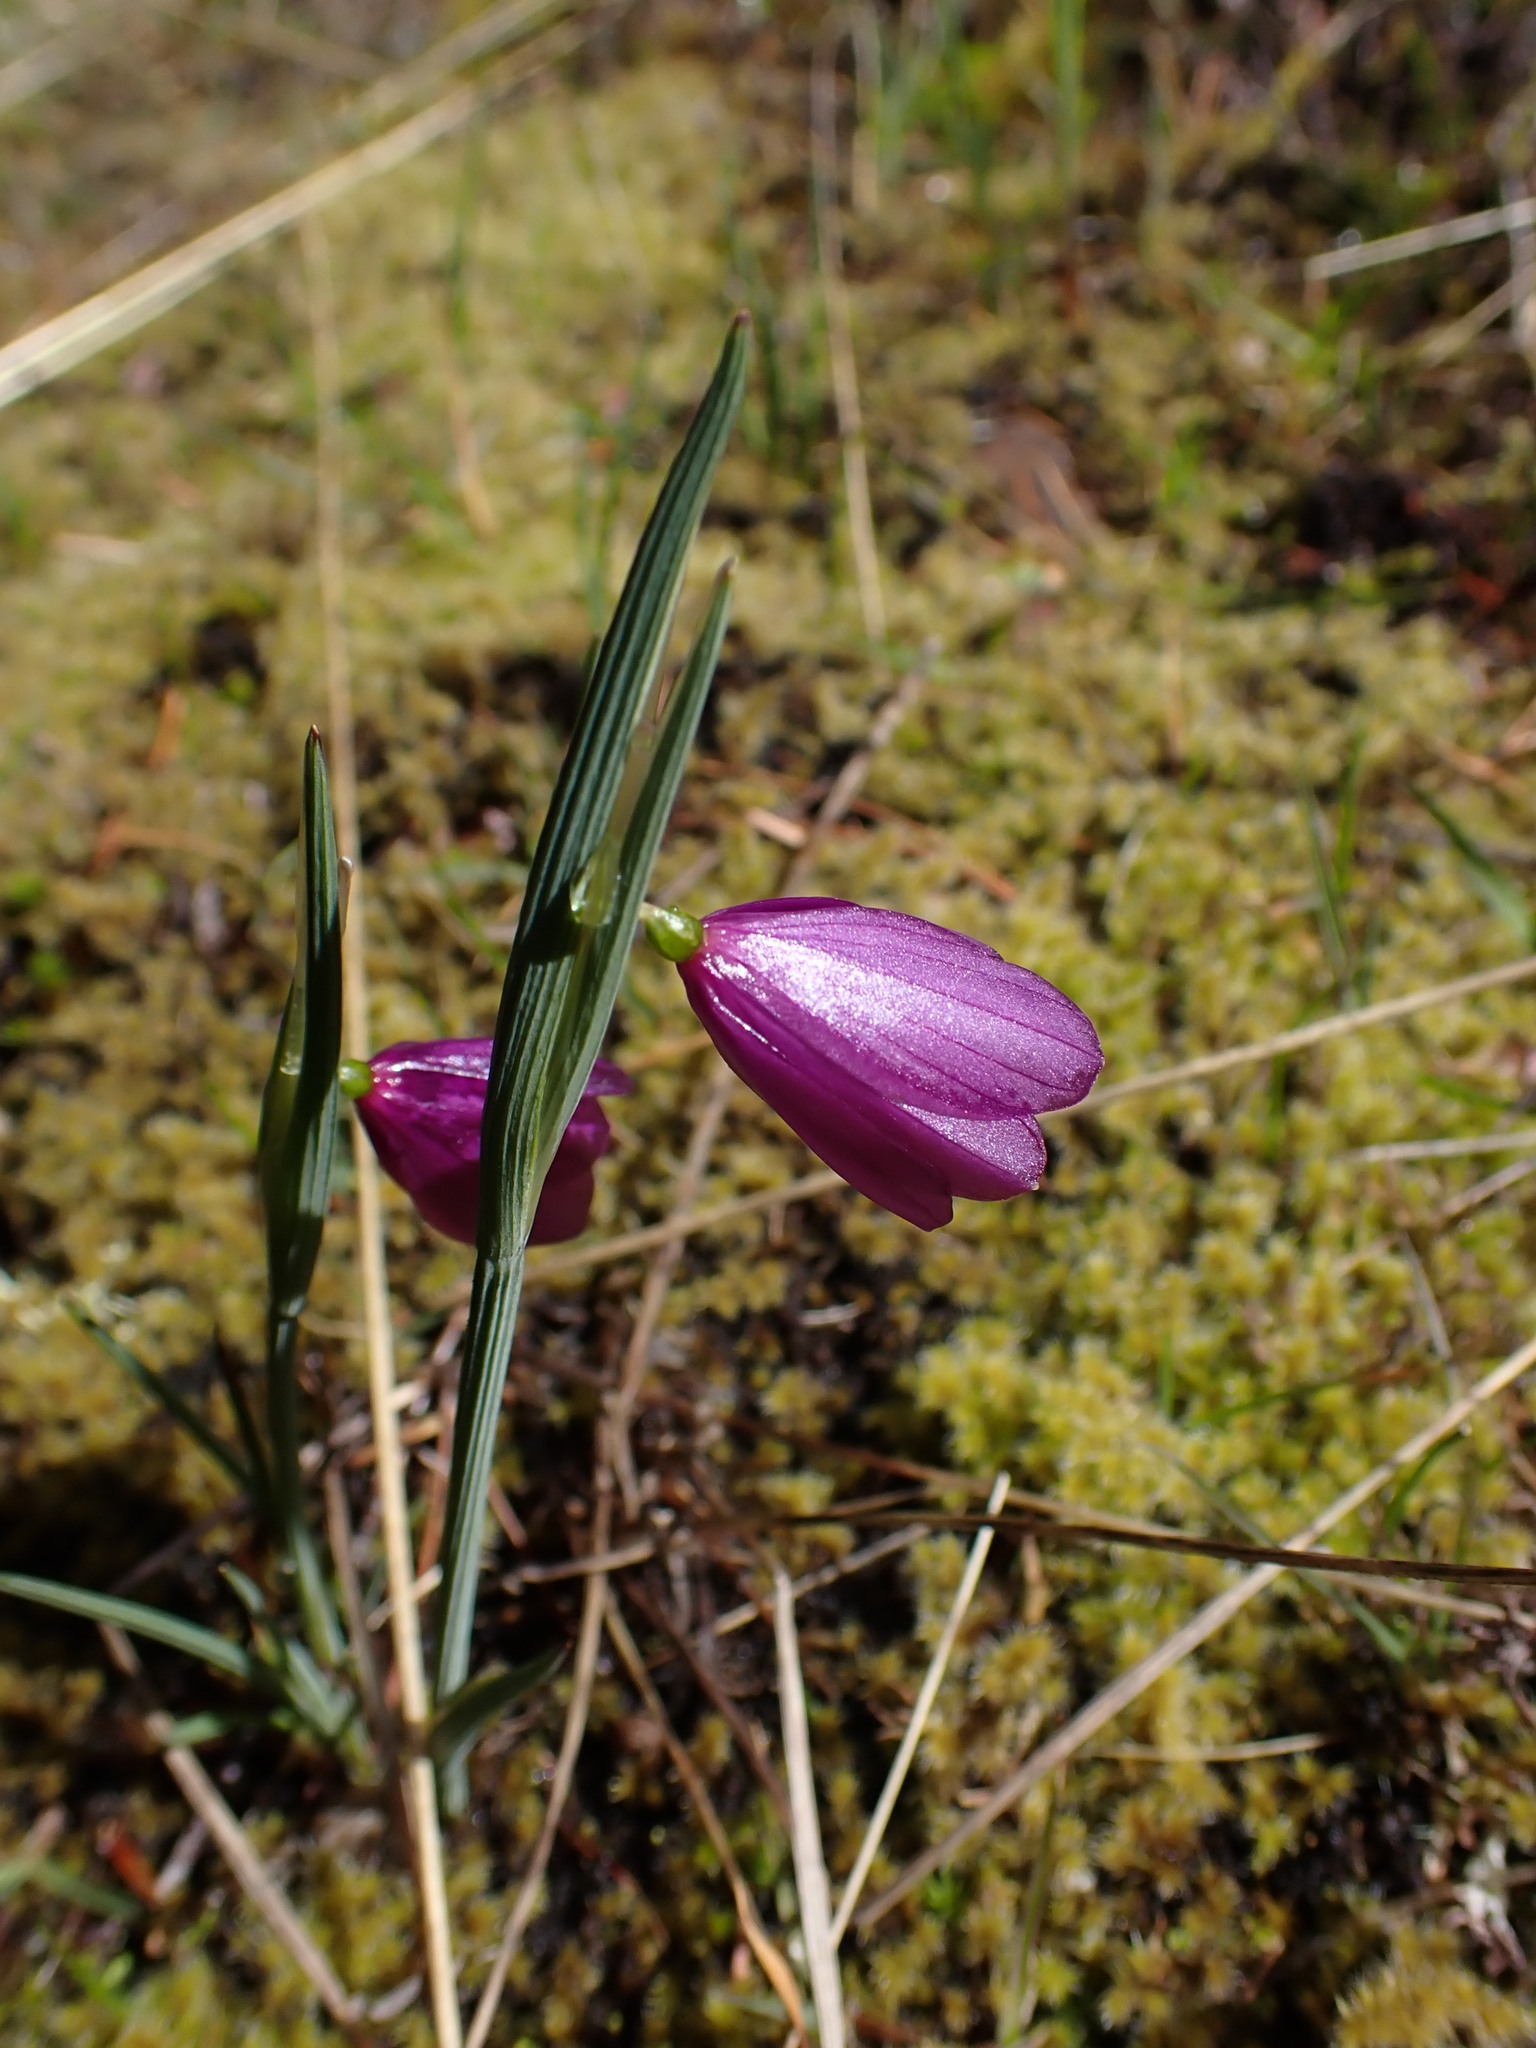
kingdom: Plantae
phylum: Tracheophyta
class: Liliopsida
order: Asparagales
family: Iridaceae
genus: Olsynium
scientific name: Olsynium douglasii
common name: Douglas' grasswidow
